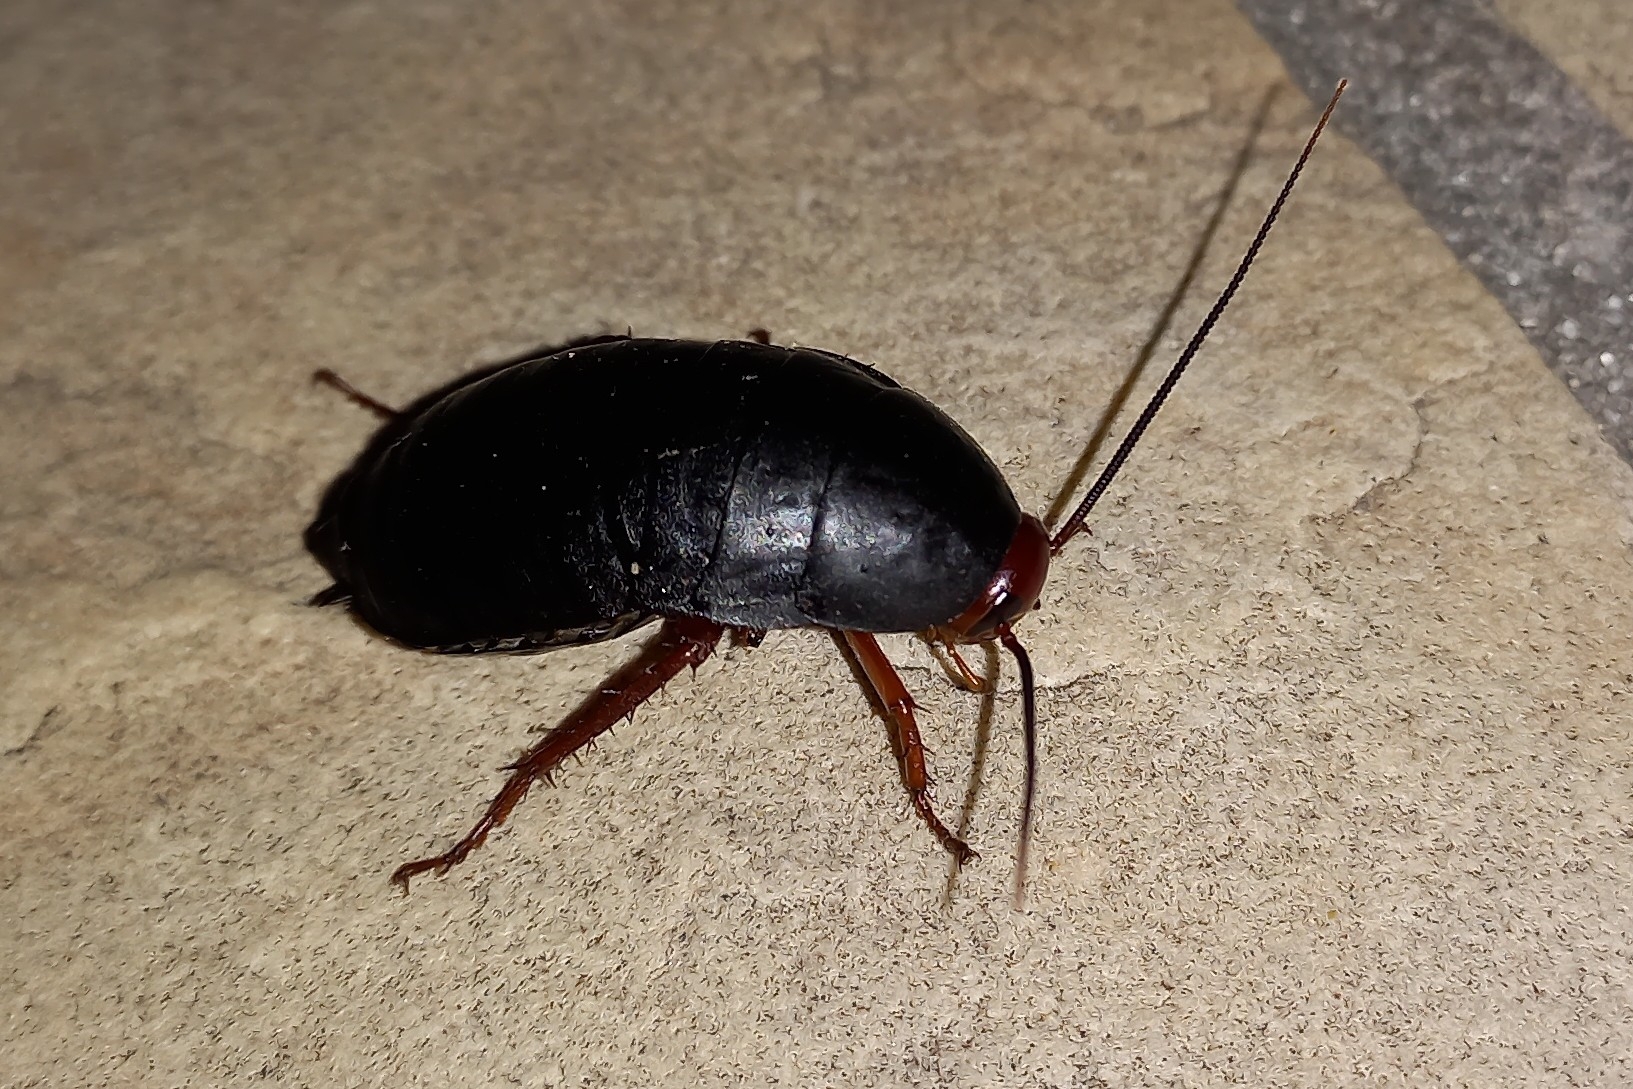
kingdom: Animalia
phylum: Arthropoda
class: Insecta
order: Blattodea
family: Blattidae
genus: Deropeltis
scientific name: Deropeltis erythrocephala
